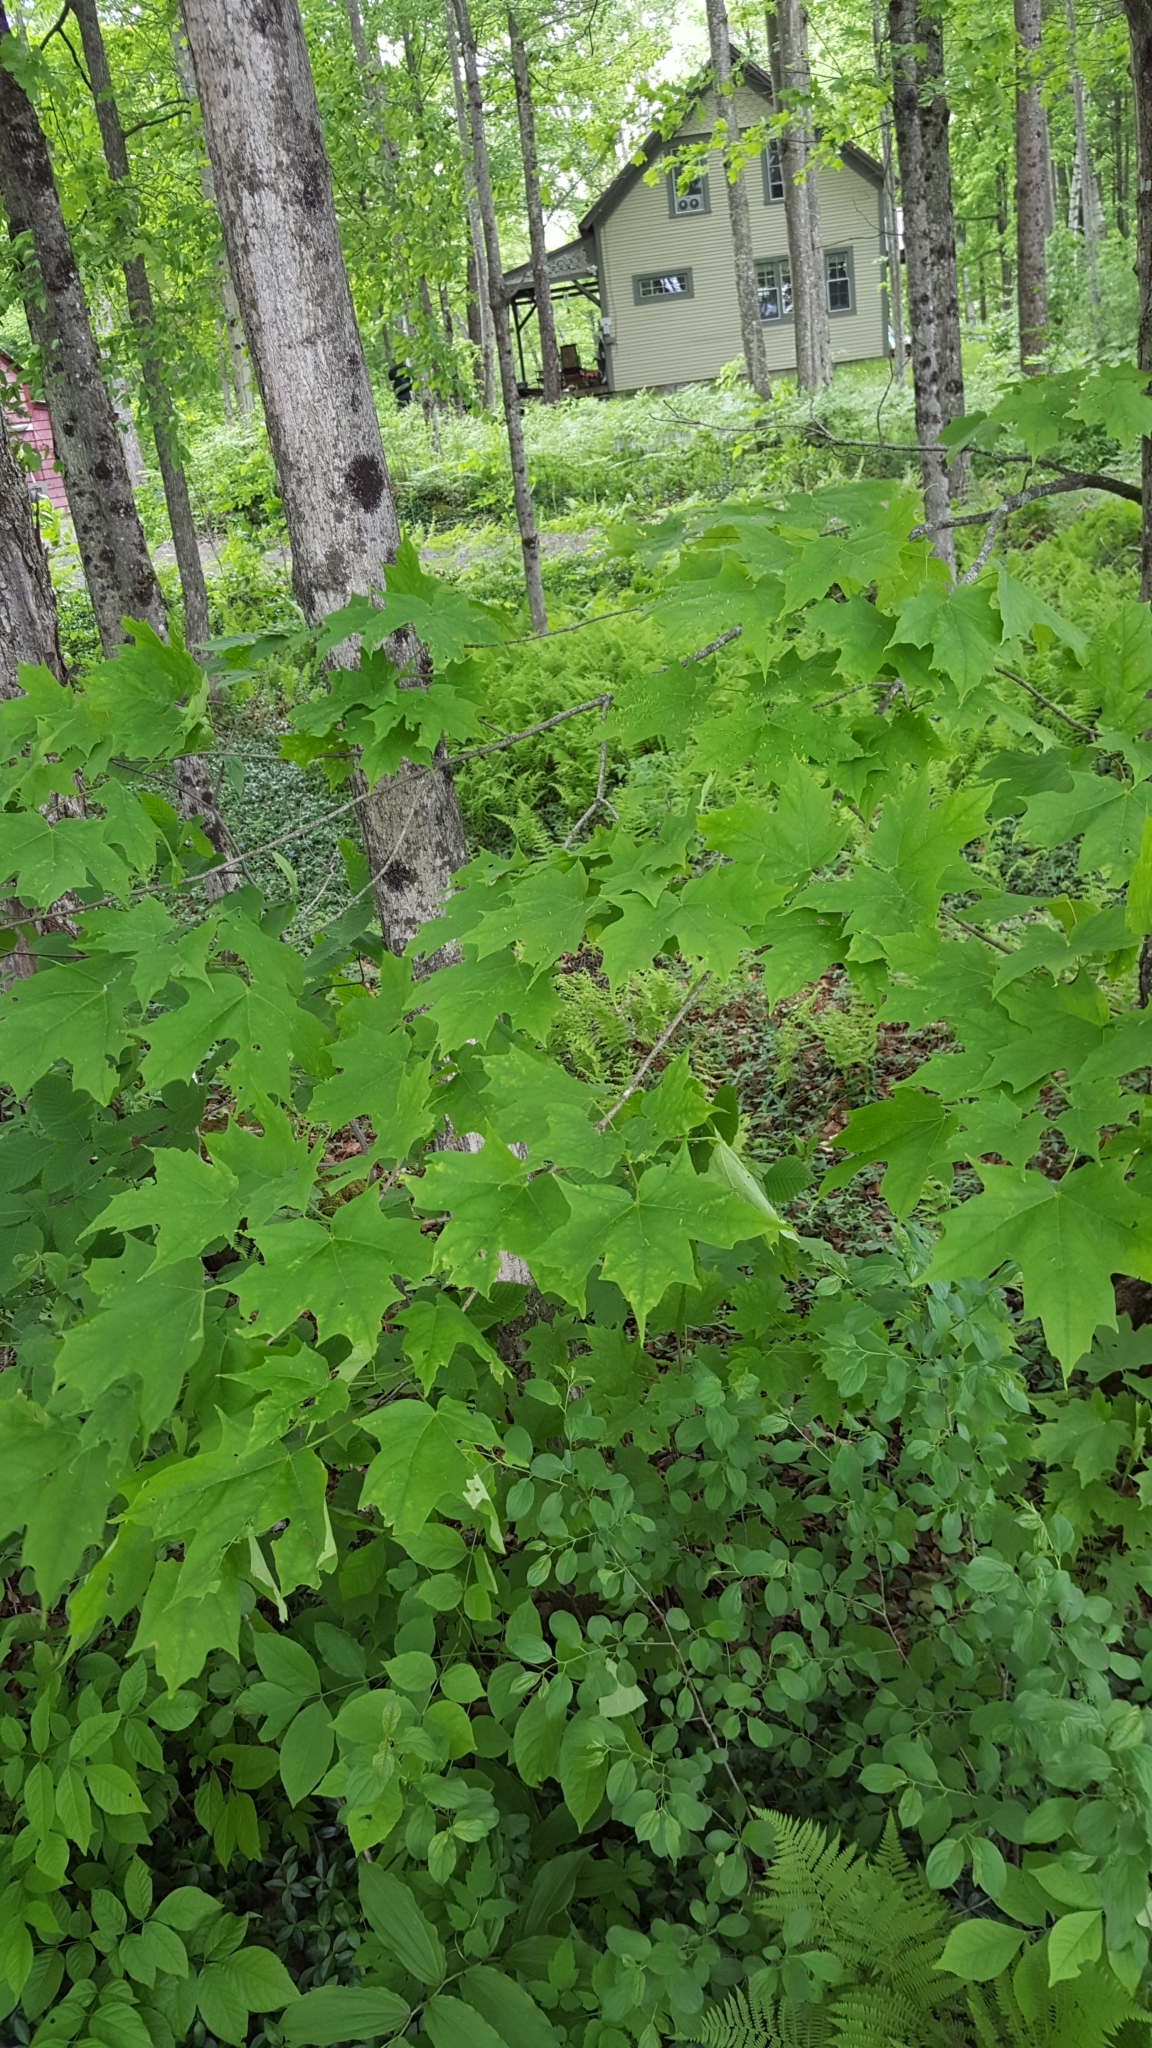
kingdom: Plantae
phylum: Tracheophyta
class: Magnoliopsida
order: Sapindales
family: Sapindaceae
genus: Acer
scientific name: Acer saccharum
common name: Sugar maple
